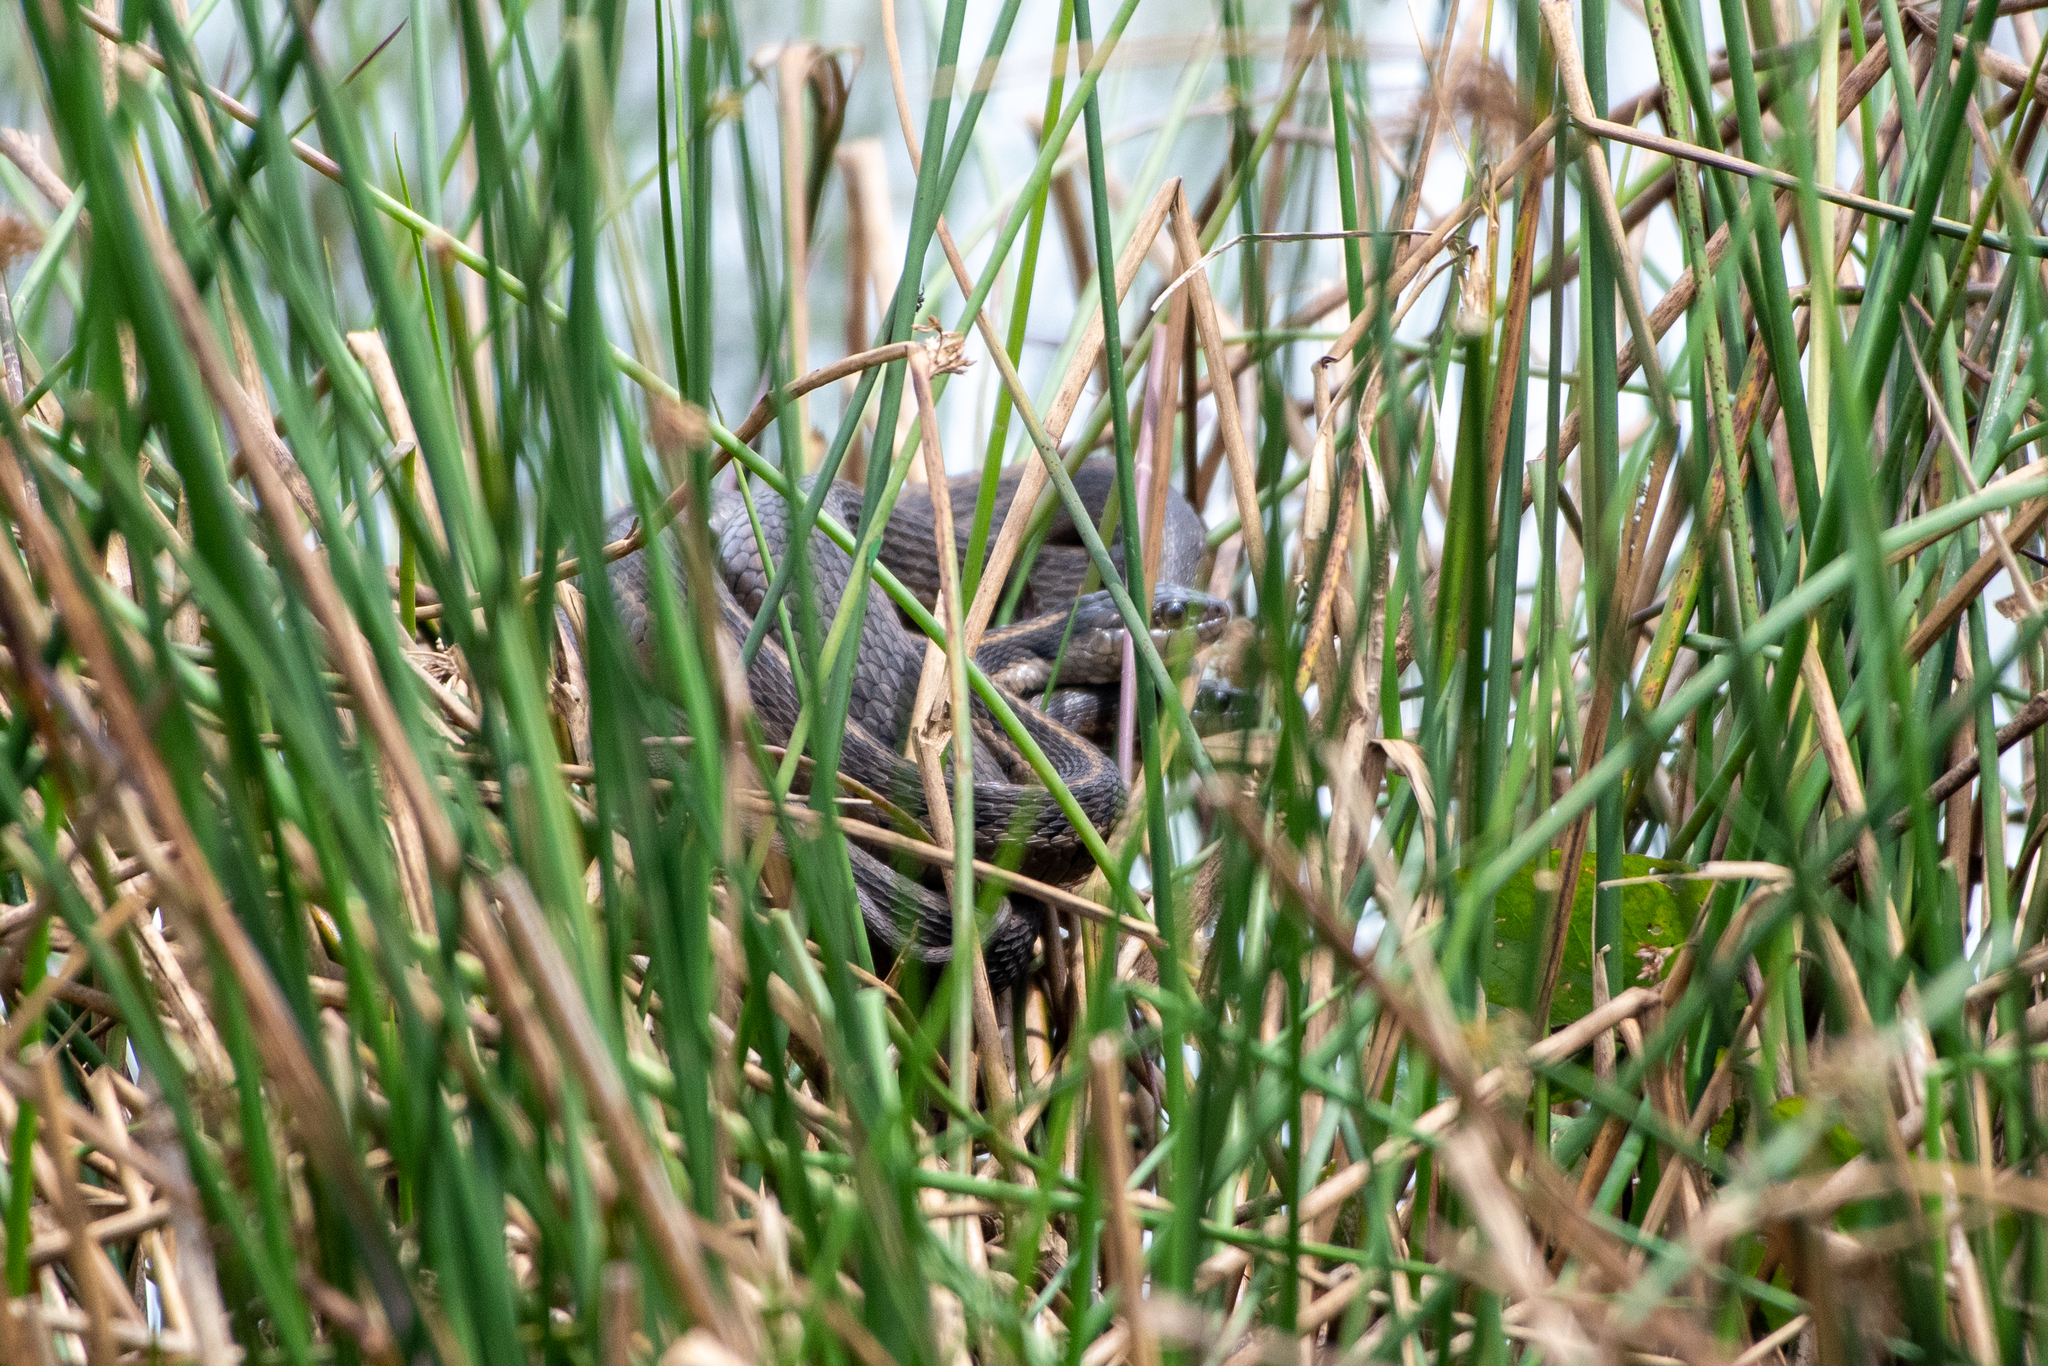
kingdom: Animalia
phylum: Chordata
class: Squamata
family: Colubridae
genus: Thamnophis
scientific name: Thamnophis fulvus
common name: Highland garter snake
